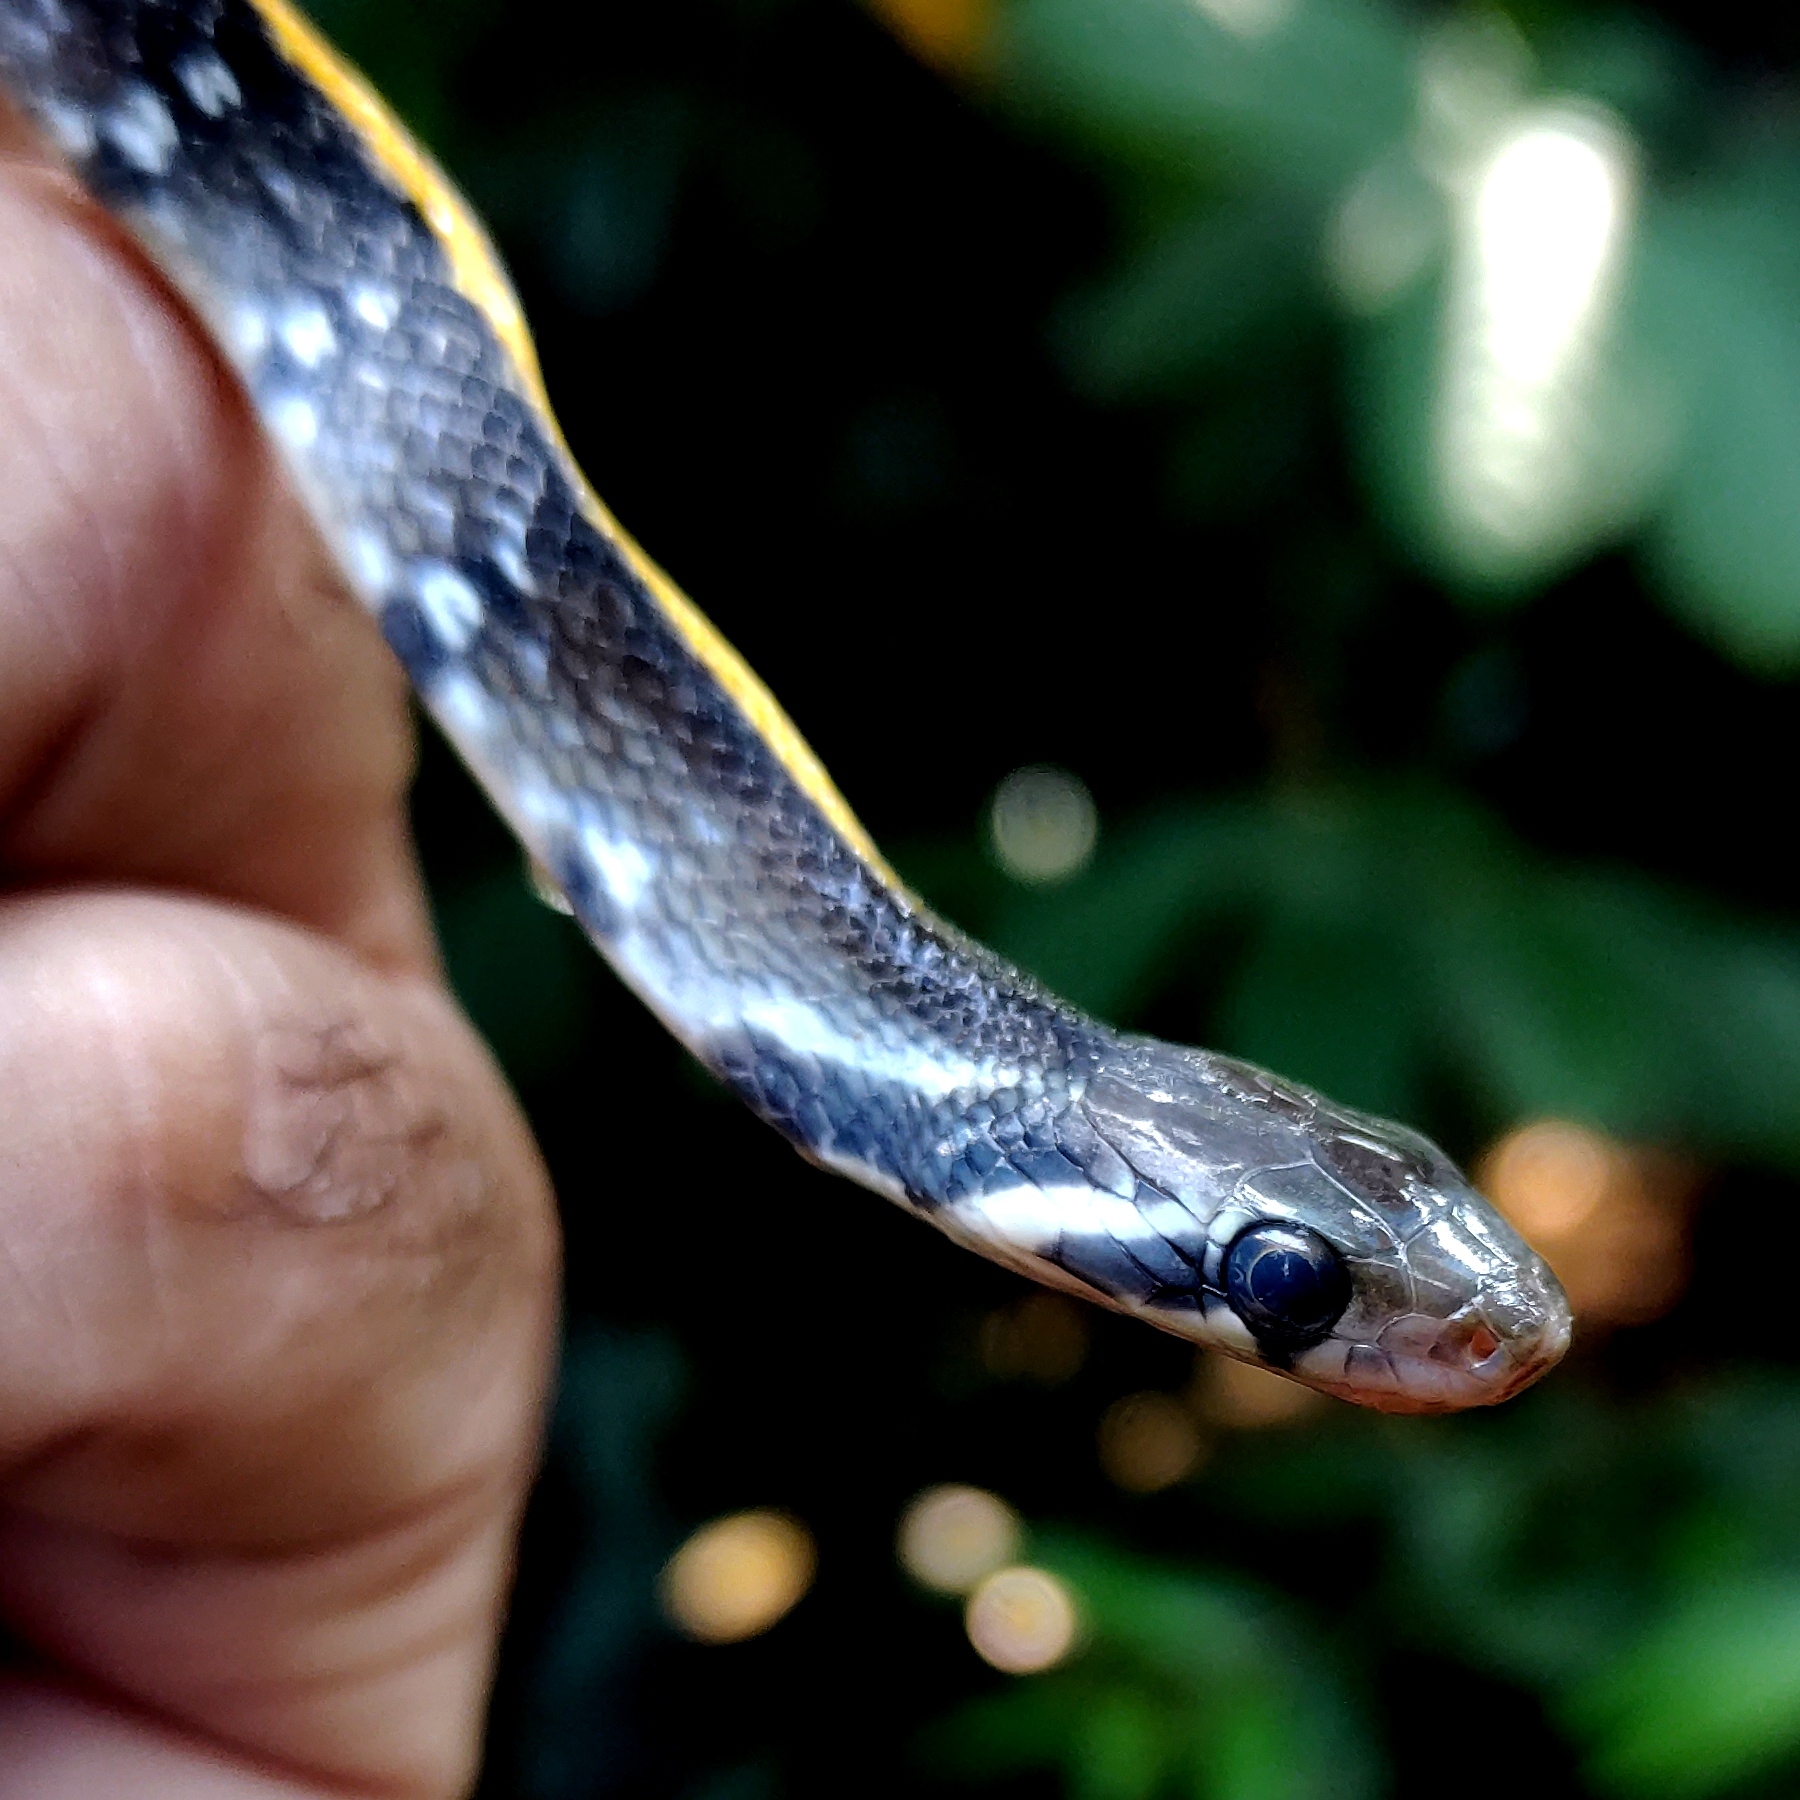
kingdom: Animalia
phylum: Chordata
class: Squamata
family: Colubridae
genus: Coelognathus
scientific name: Coelognathus flavolineatus
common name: Black copper rat snake
